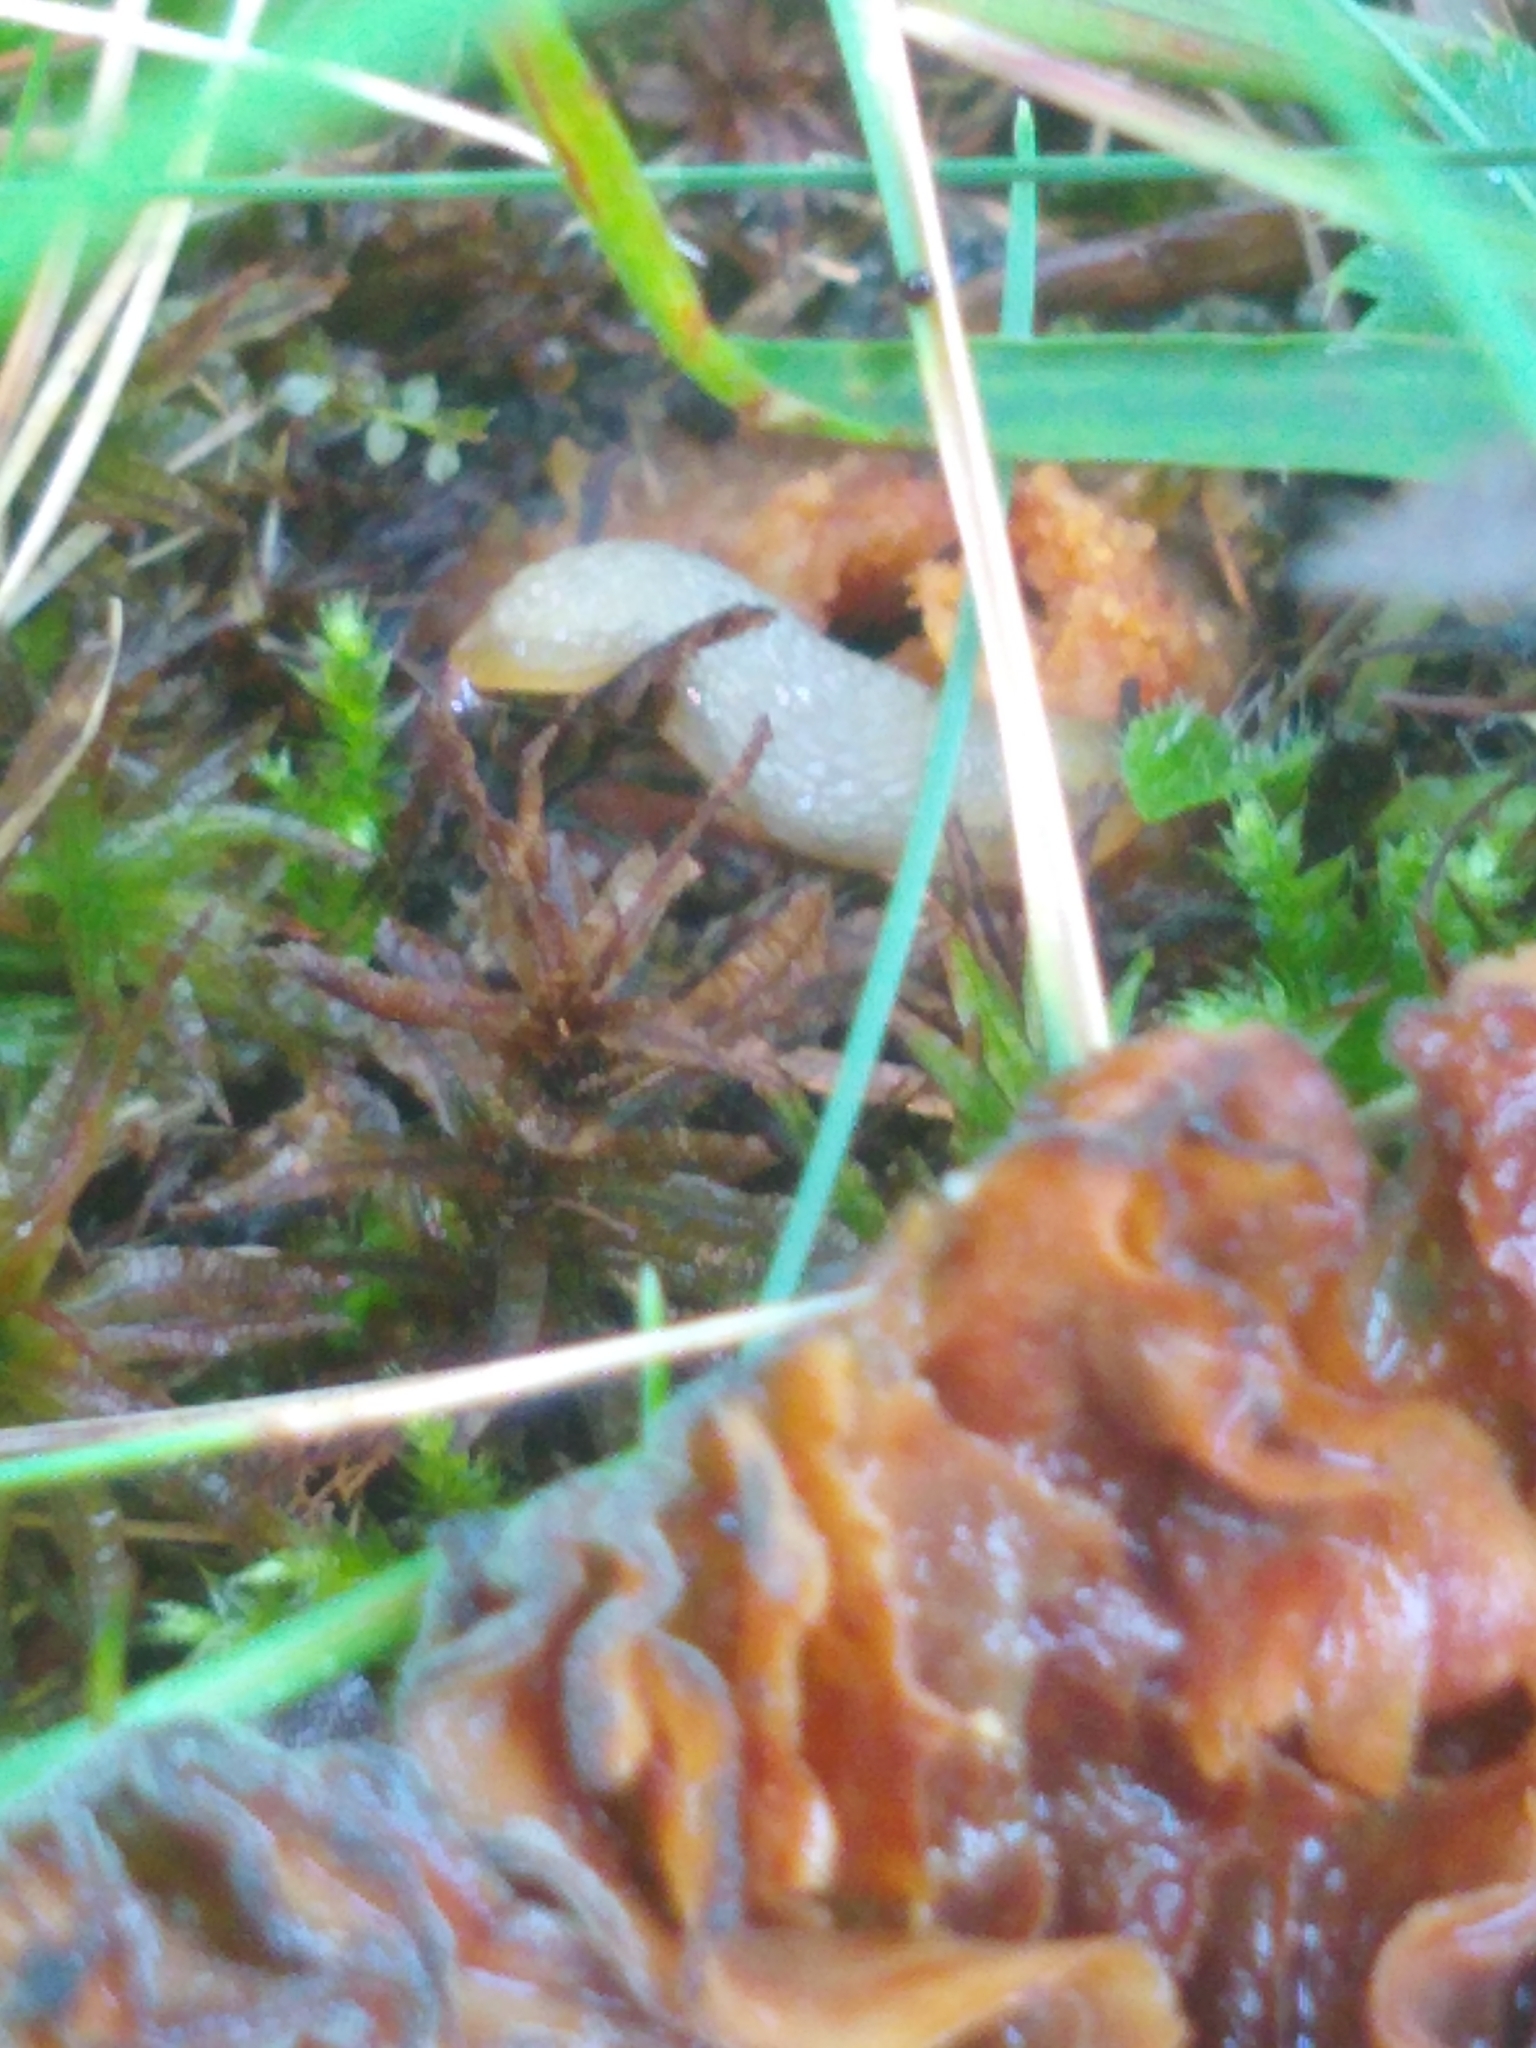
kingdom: Animalia
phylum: Mollusca
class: Gastropoda
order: Stylommatophora
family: Arionidae
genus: Arion
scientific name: Arion intermedius
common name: Hedgehog slug
